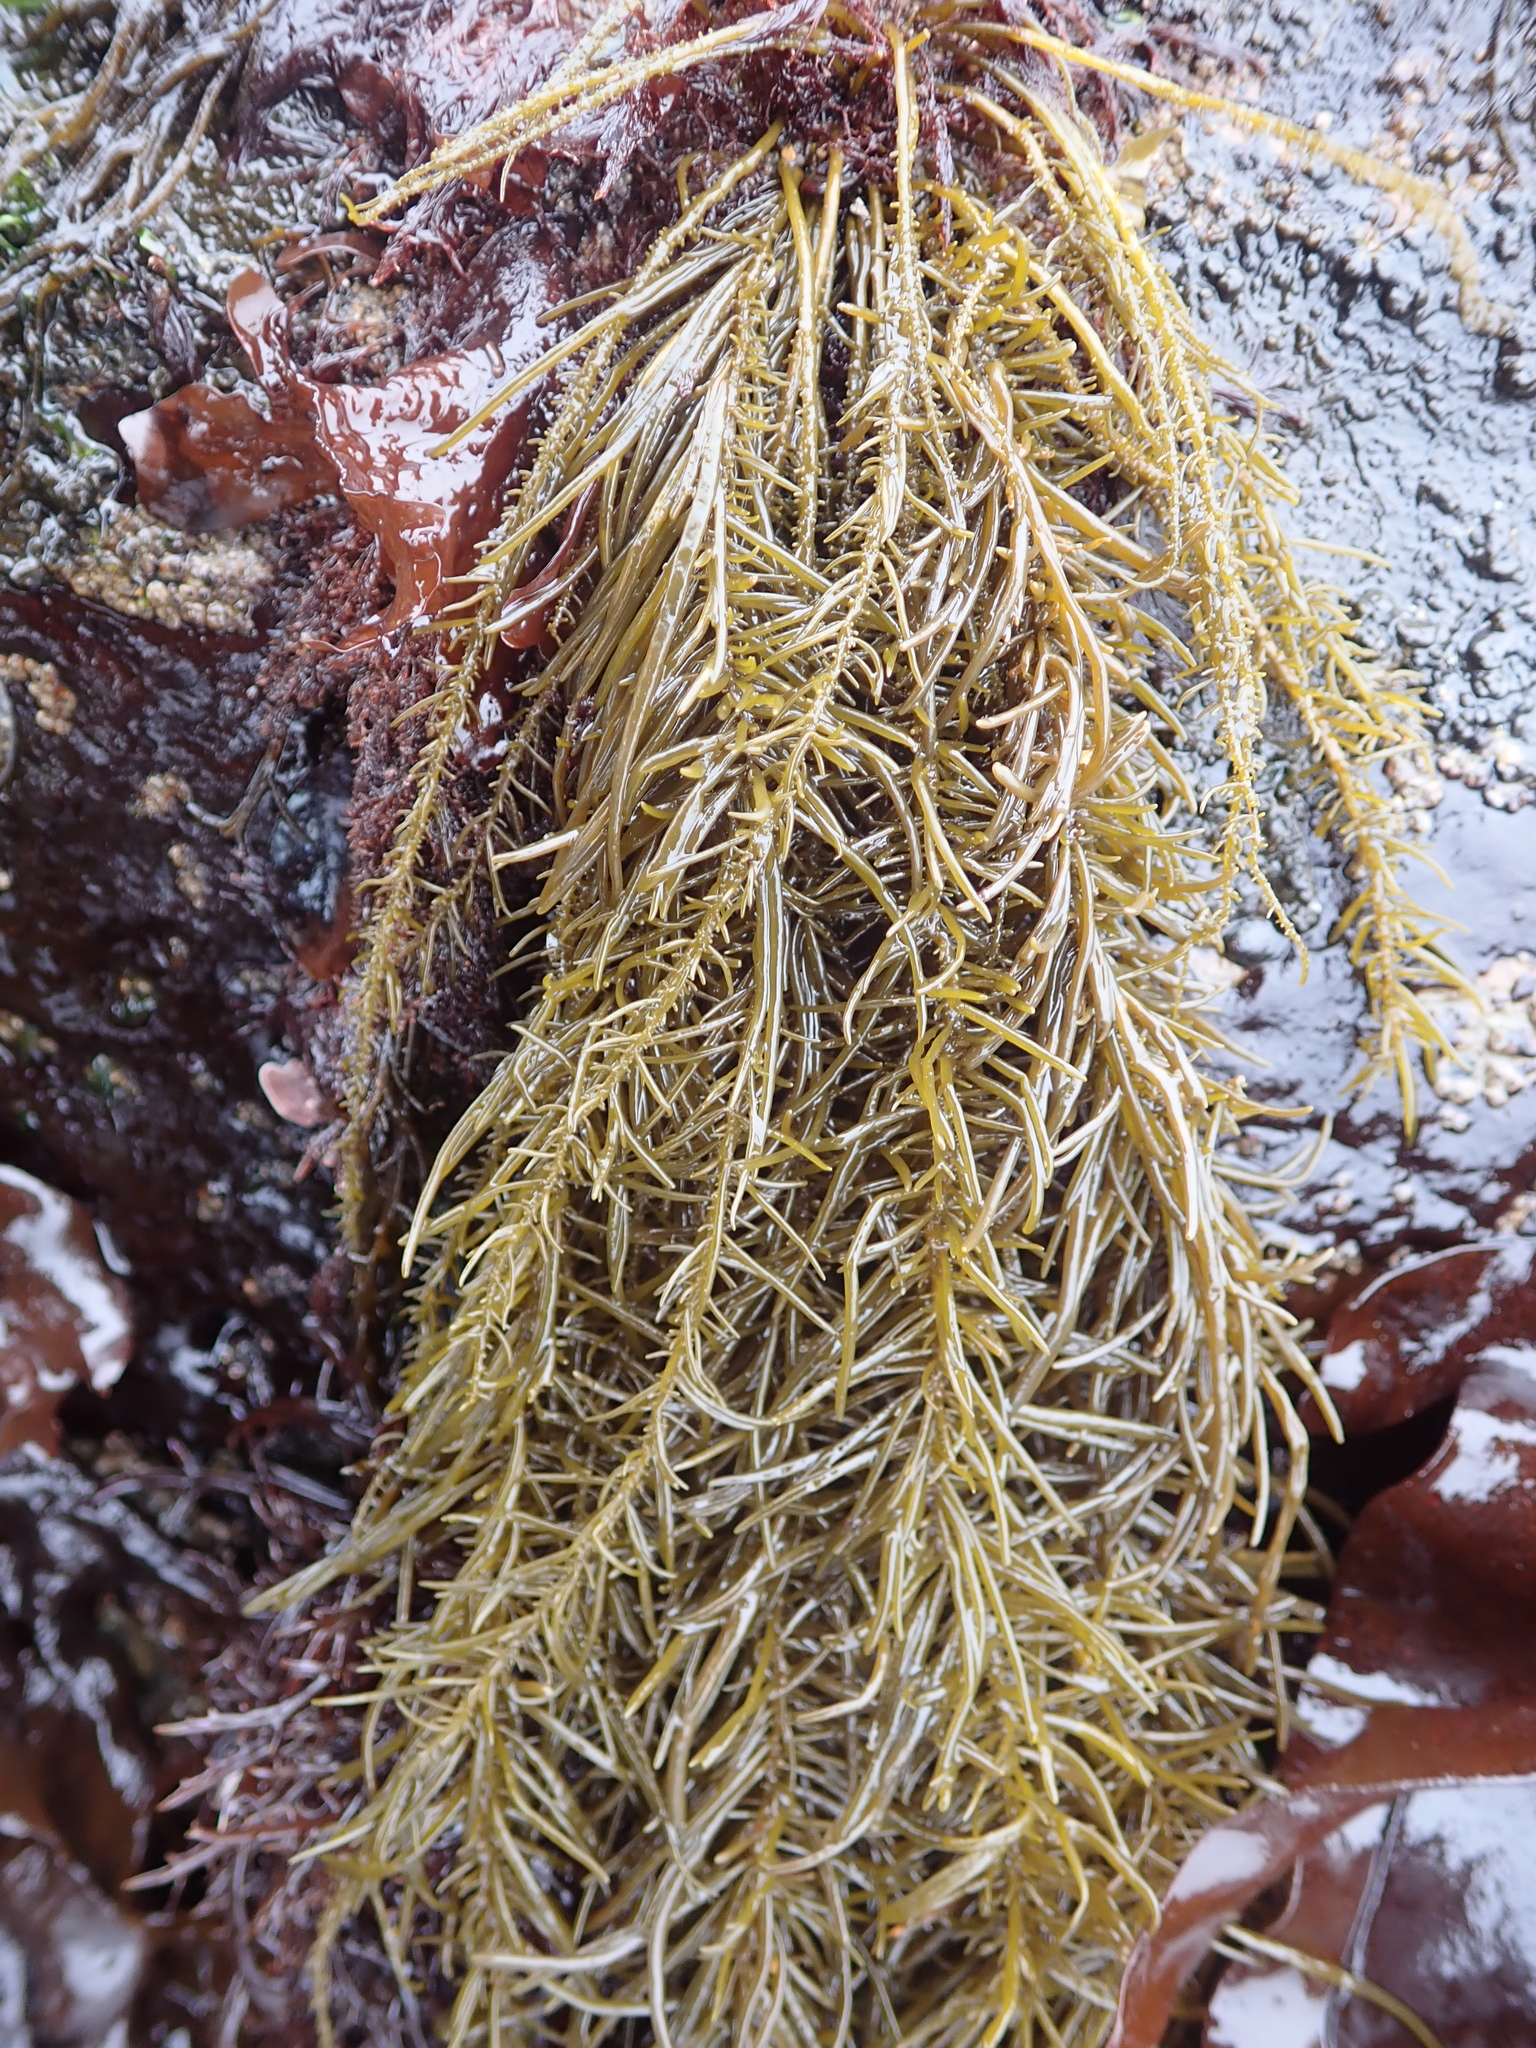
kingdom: Chromista
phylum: Ochrophyta
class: Phaeophyceae
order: Scytosiphonales
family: Scytosiphonaceae
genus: Analipus
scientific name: Analipus japonicus
